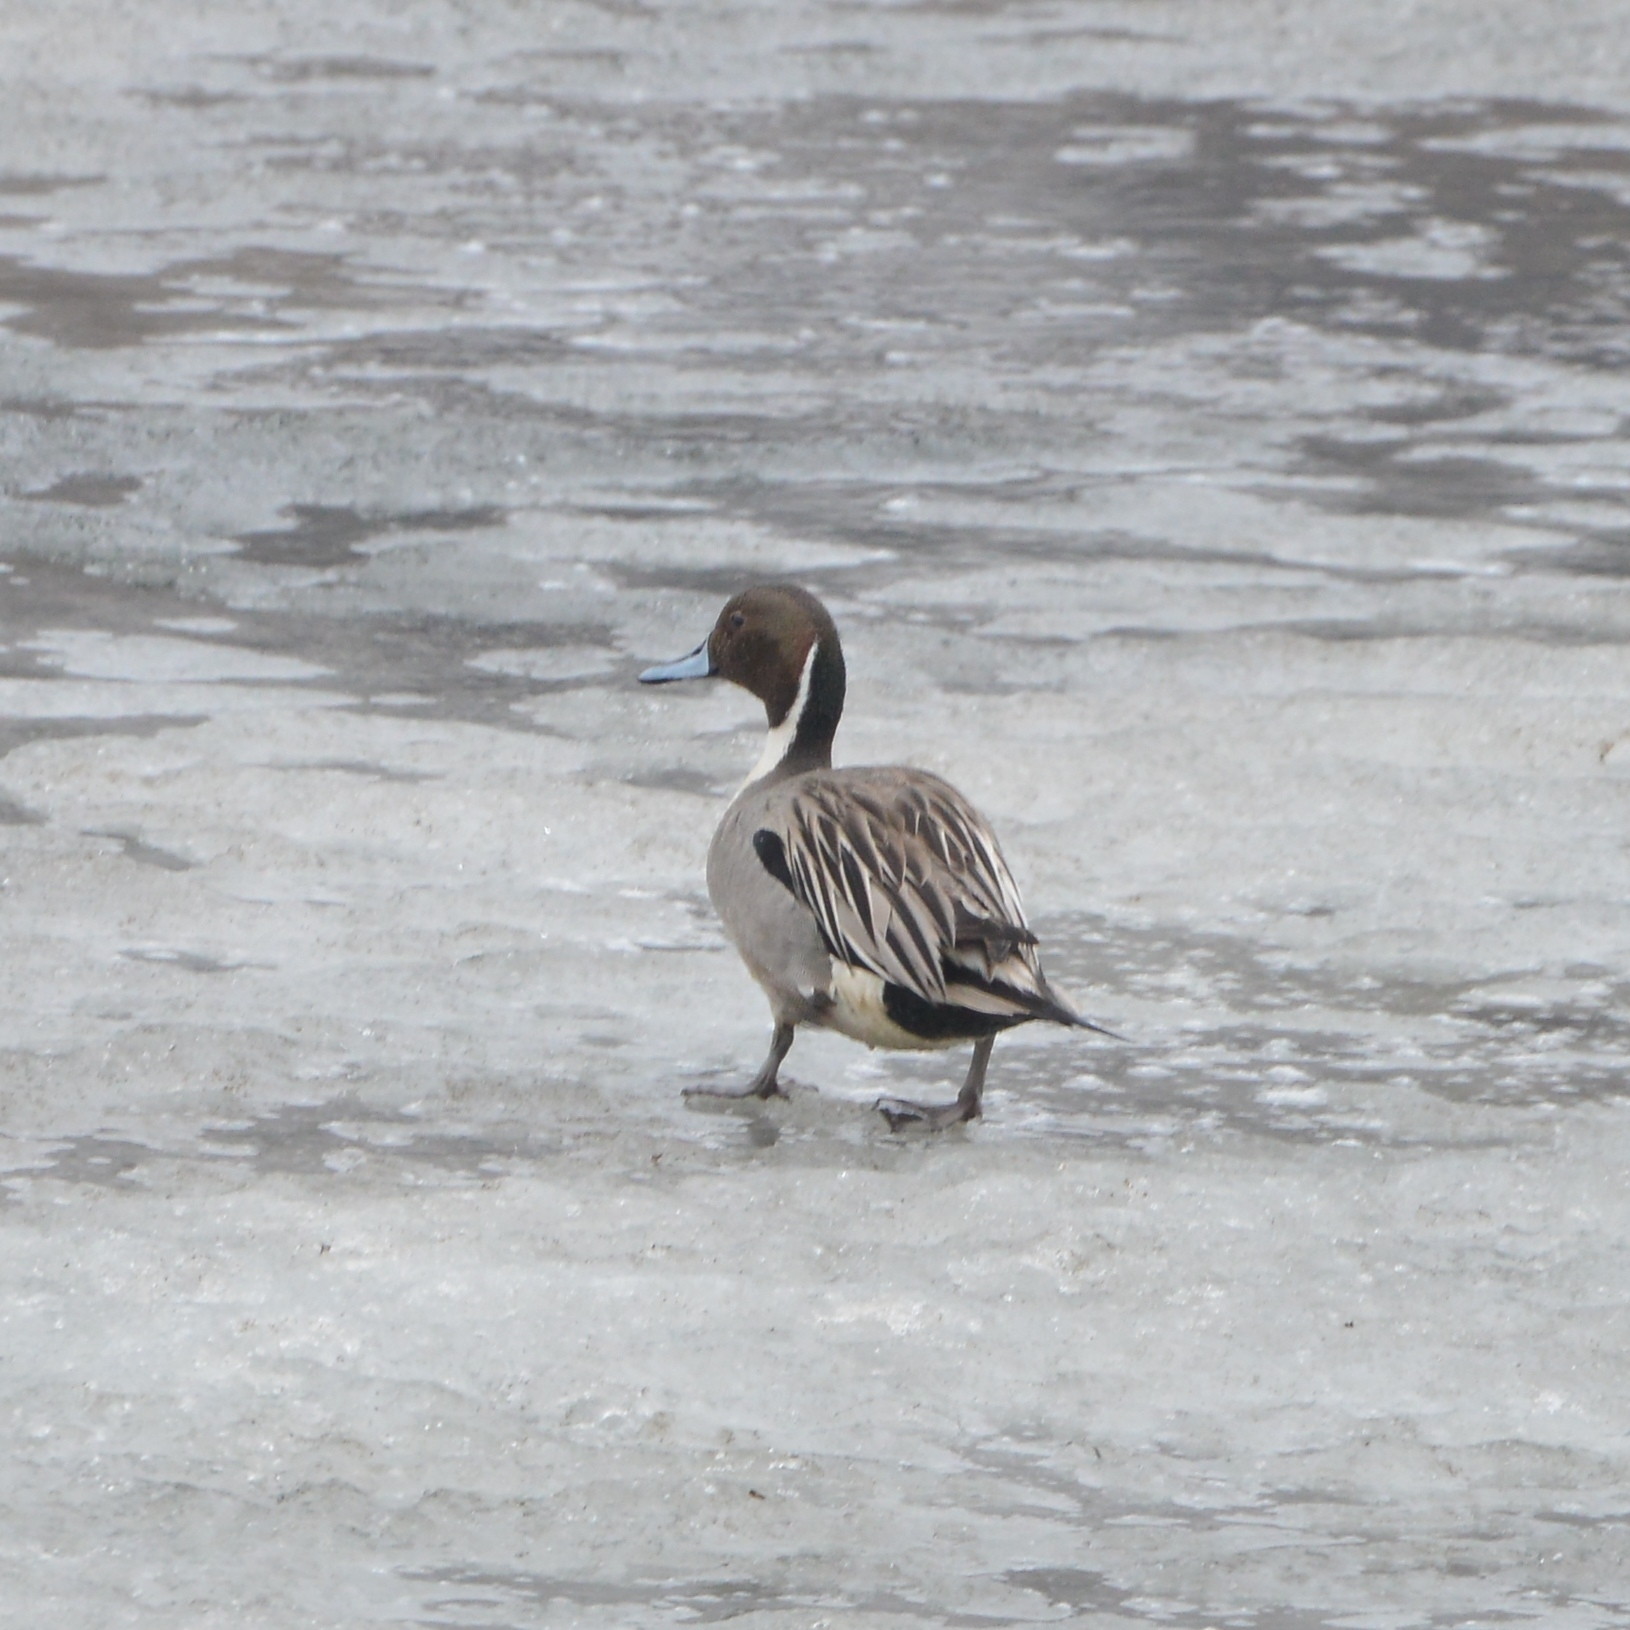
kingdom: Animalia
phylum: Chordata
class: Aves
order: Anseriformes
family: Anatidae
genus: Anas
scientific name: Anas acuta
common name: Northern pintail
